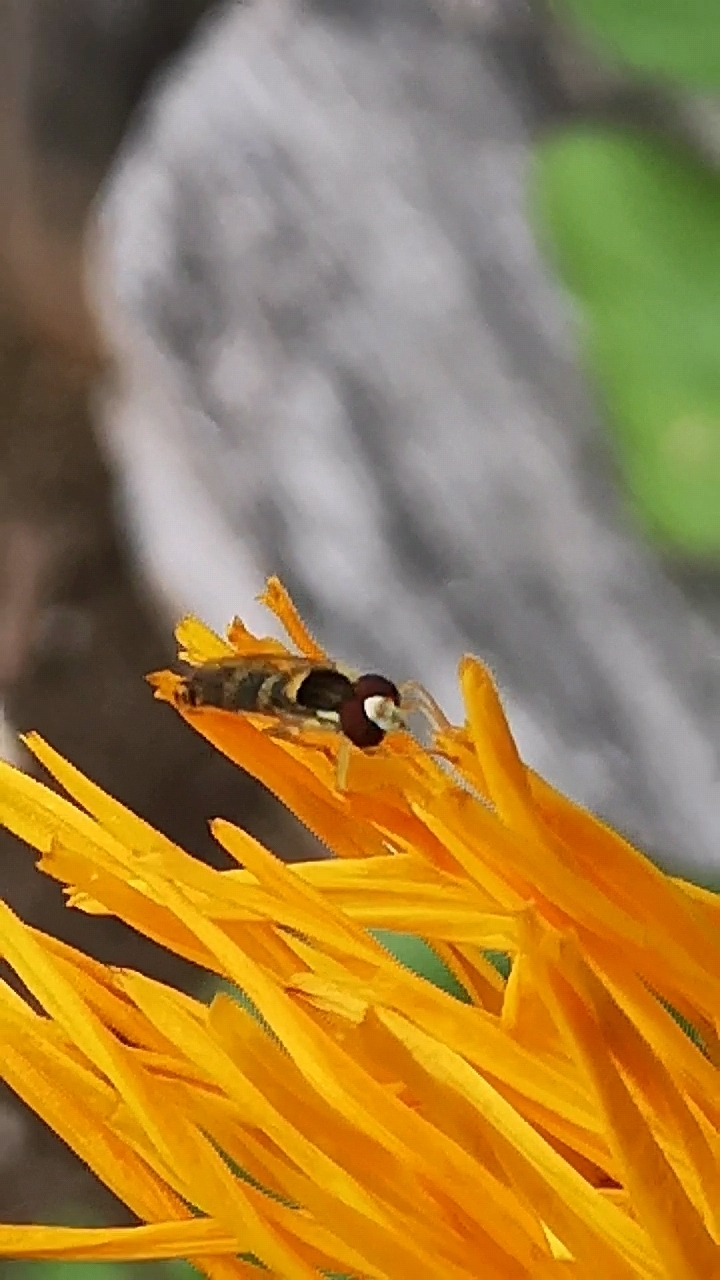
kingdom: Animalia
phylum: Arthropoda
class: Insecta
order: Diptera
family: Syrphidae
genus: Sphaerophoria
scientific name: Sphaerophoria scripta
